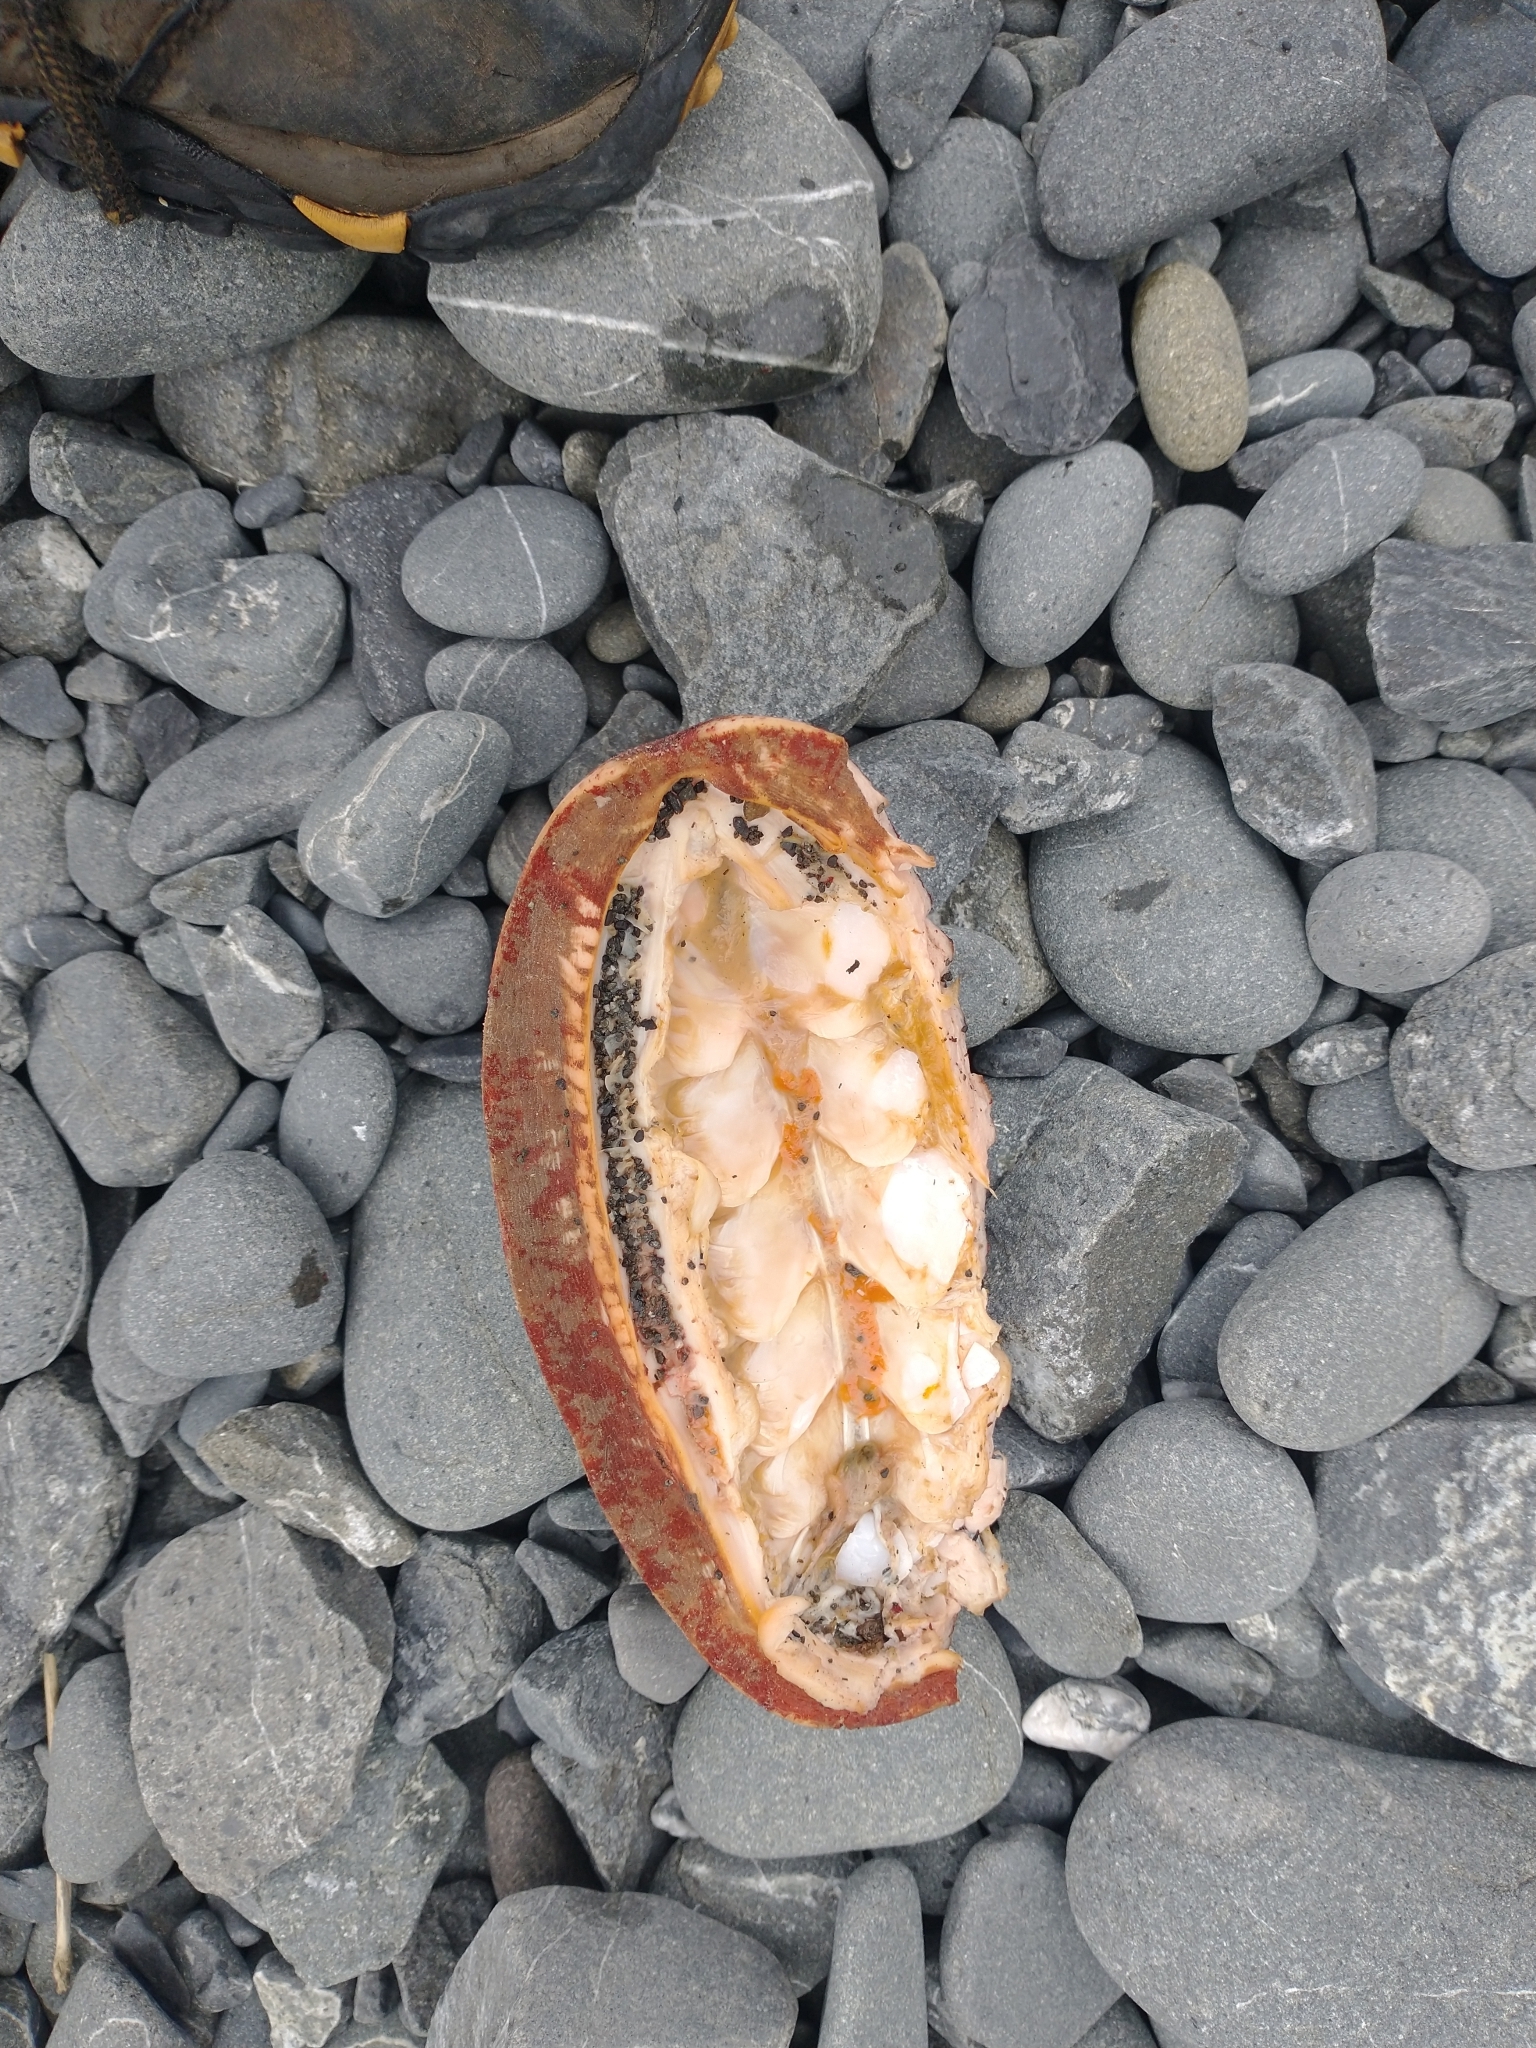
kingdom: Animalia
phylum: Mollusca
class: Polyplacophora
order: Chitonida
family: Acanthochitonidae
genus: Cryptochiton
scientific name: Cryptochiton stelleri
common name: Giant pacific chiton
